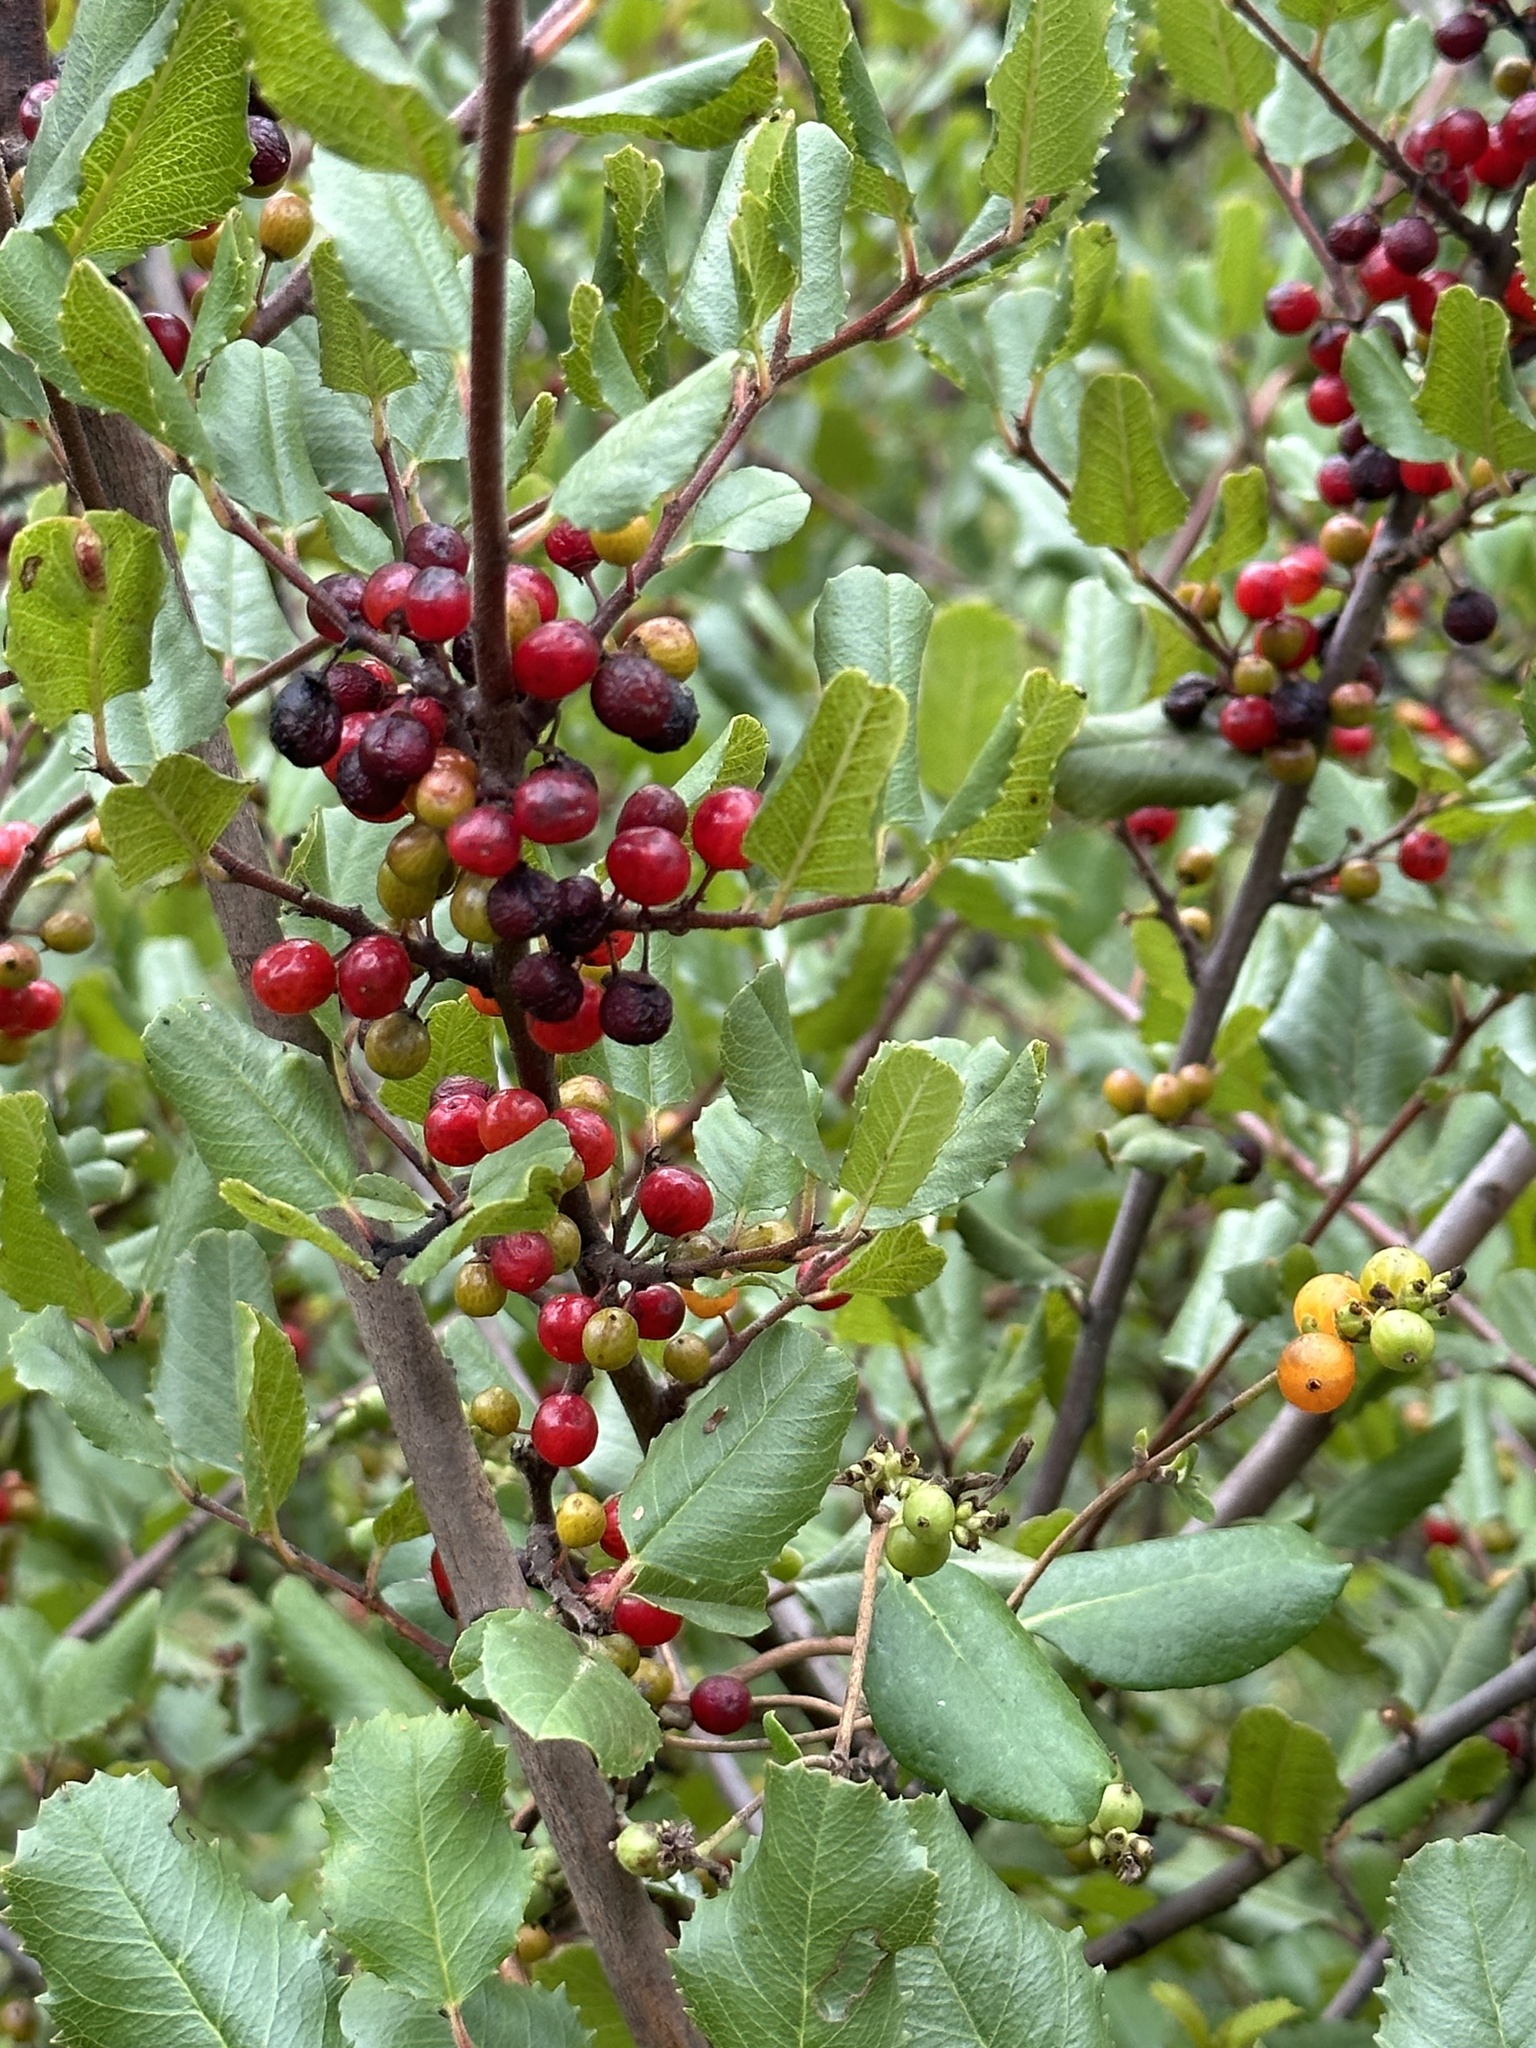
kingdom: Plantae
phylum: Tracheophyta
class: Magnoliopsida
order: Rosales
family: Rhamnaceae
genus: Endotropis
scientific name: Endotropis crocea
